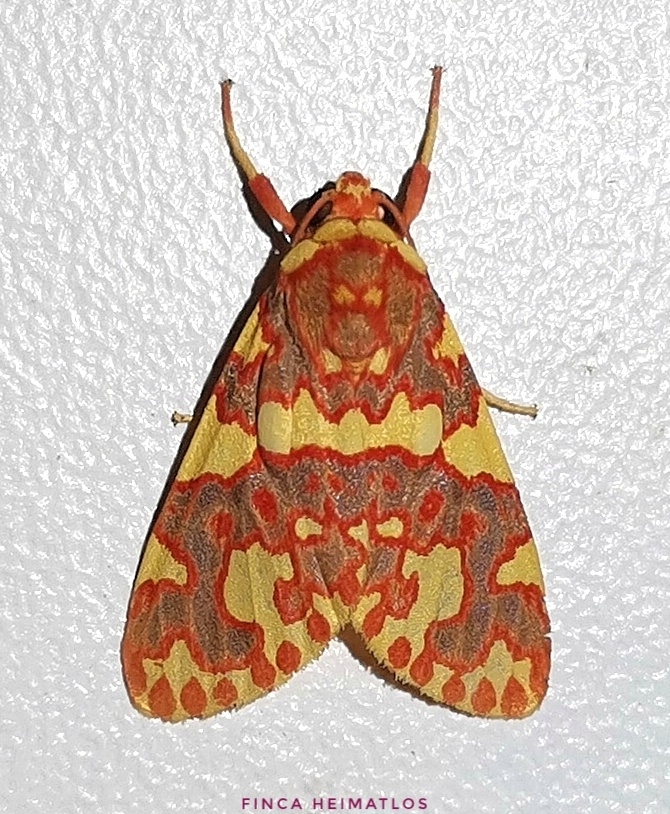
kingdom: Animalia
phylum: Arthropoda
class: Insecta
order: Lepidoptera
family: Erebidae
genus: Hyponerita
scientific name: Hyponerita persimilis
